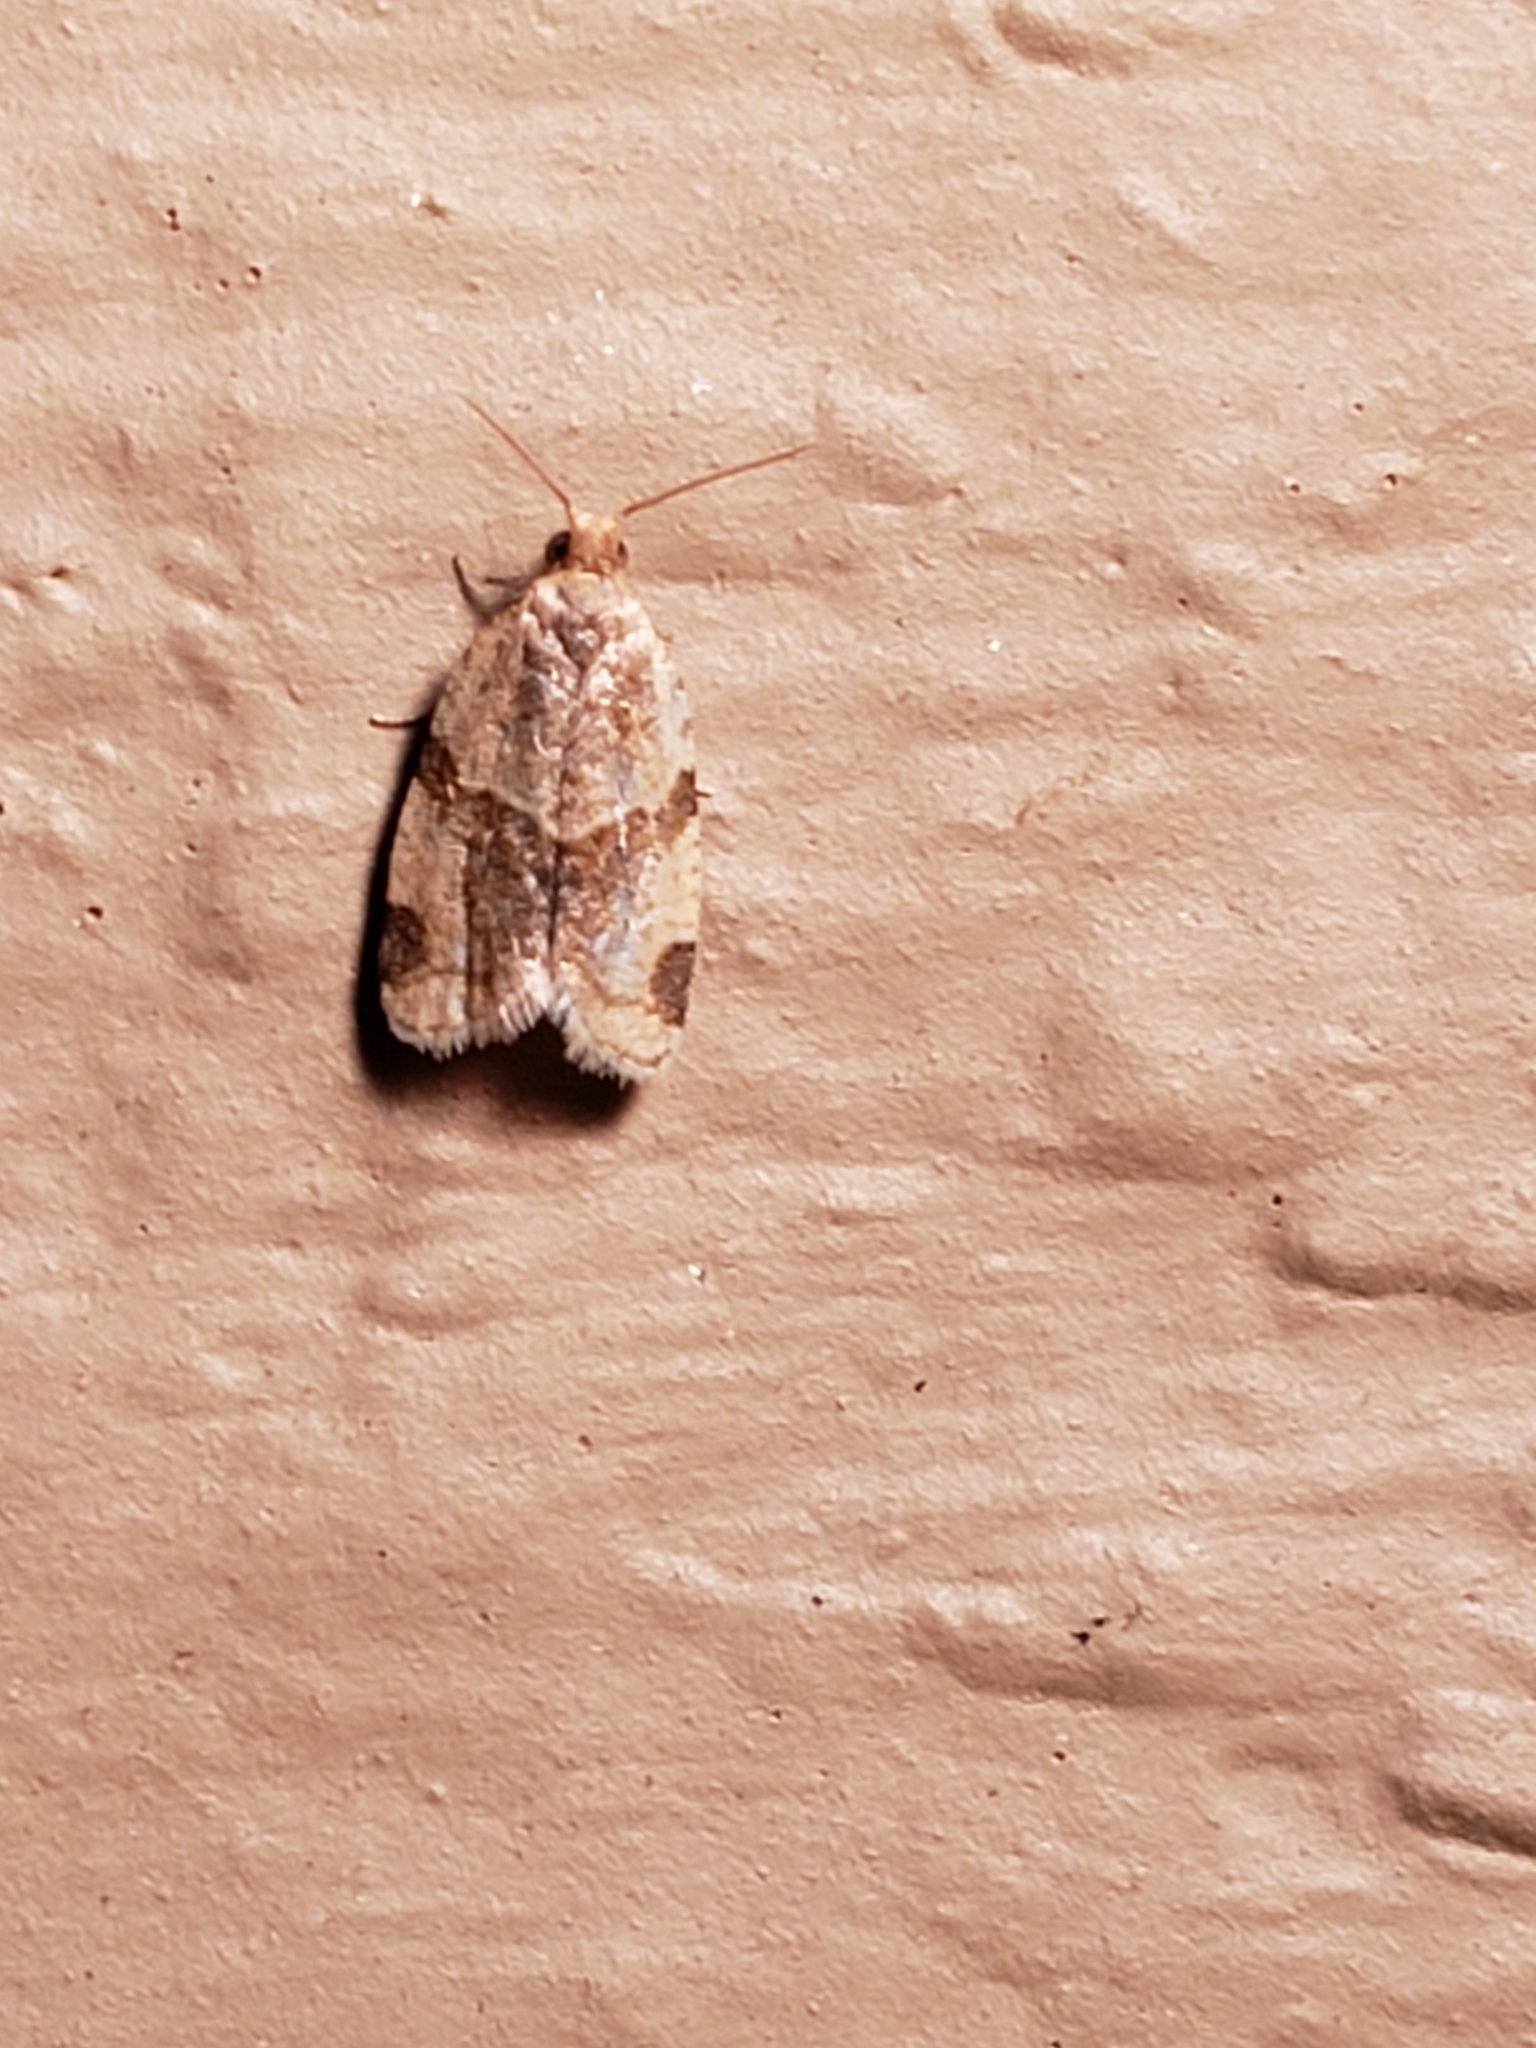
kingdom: Animalia
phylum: Arthropoda
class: Insecta
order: Lepidoptera
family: Tortricidae
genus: Clepsis
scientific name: Clepsis peritana
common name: Garden tortrix
